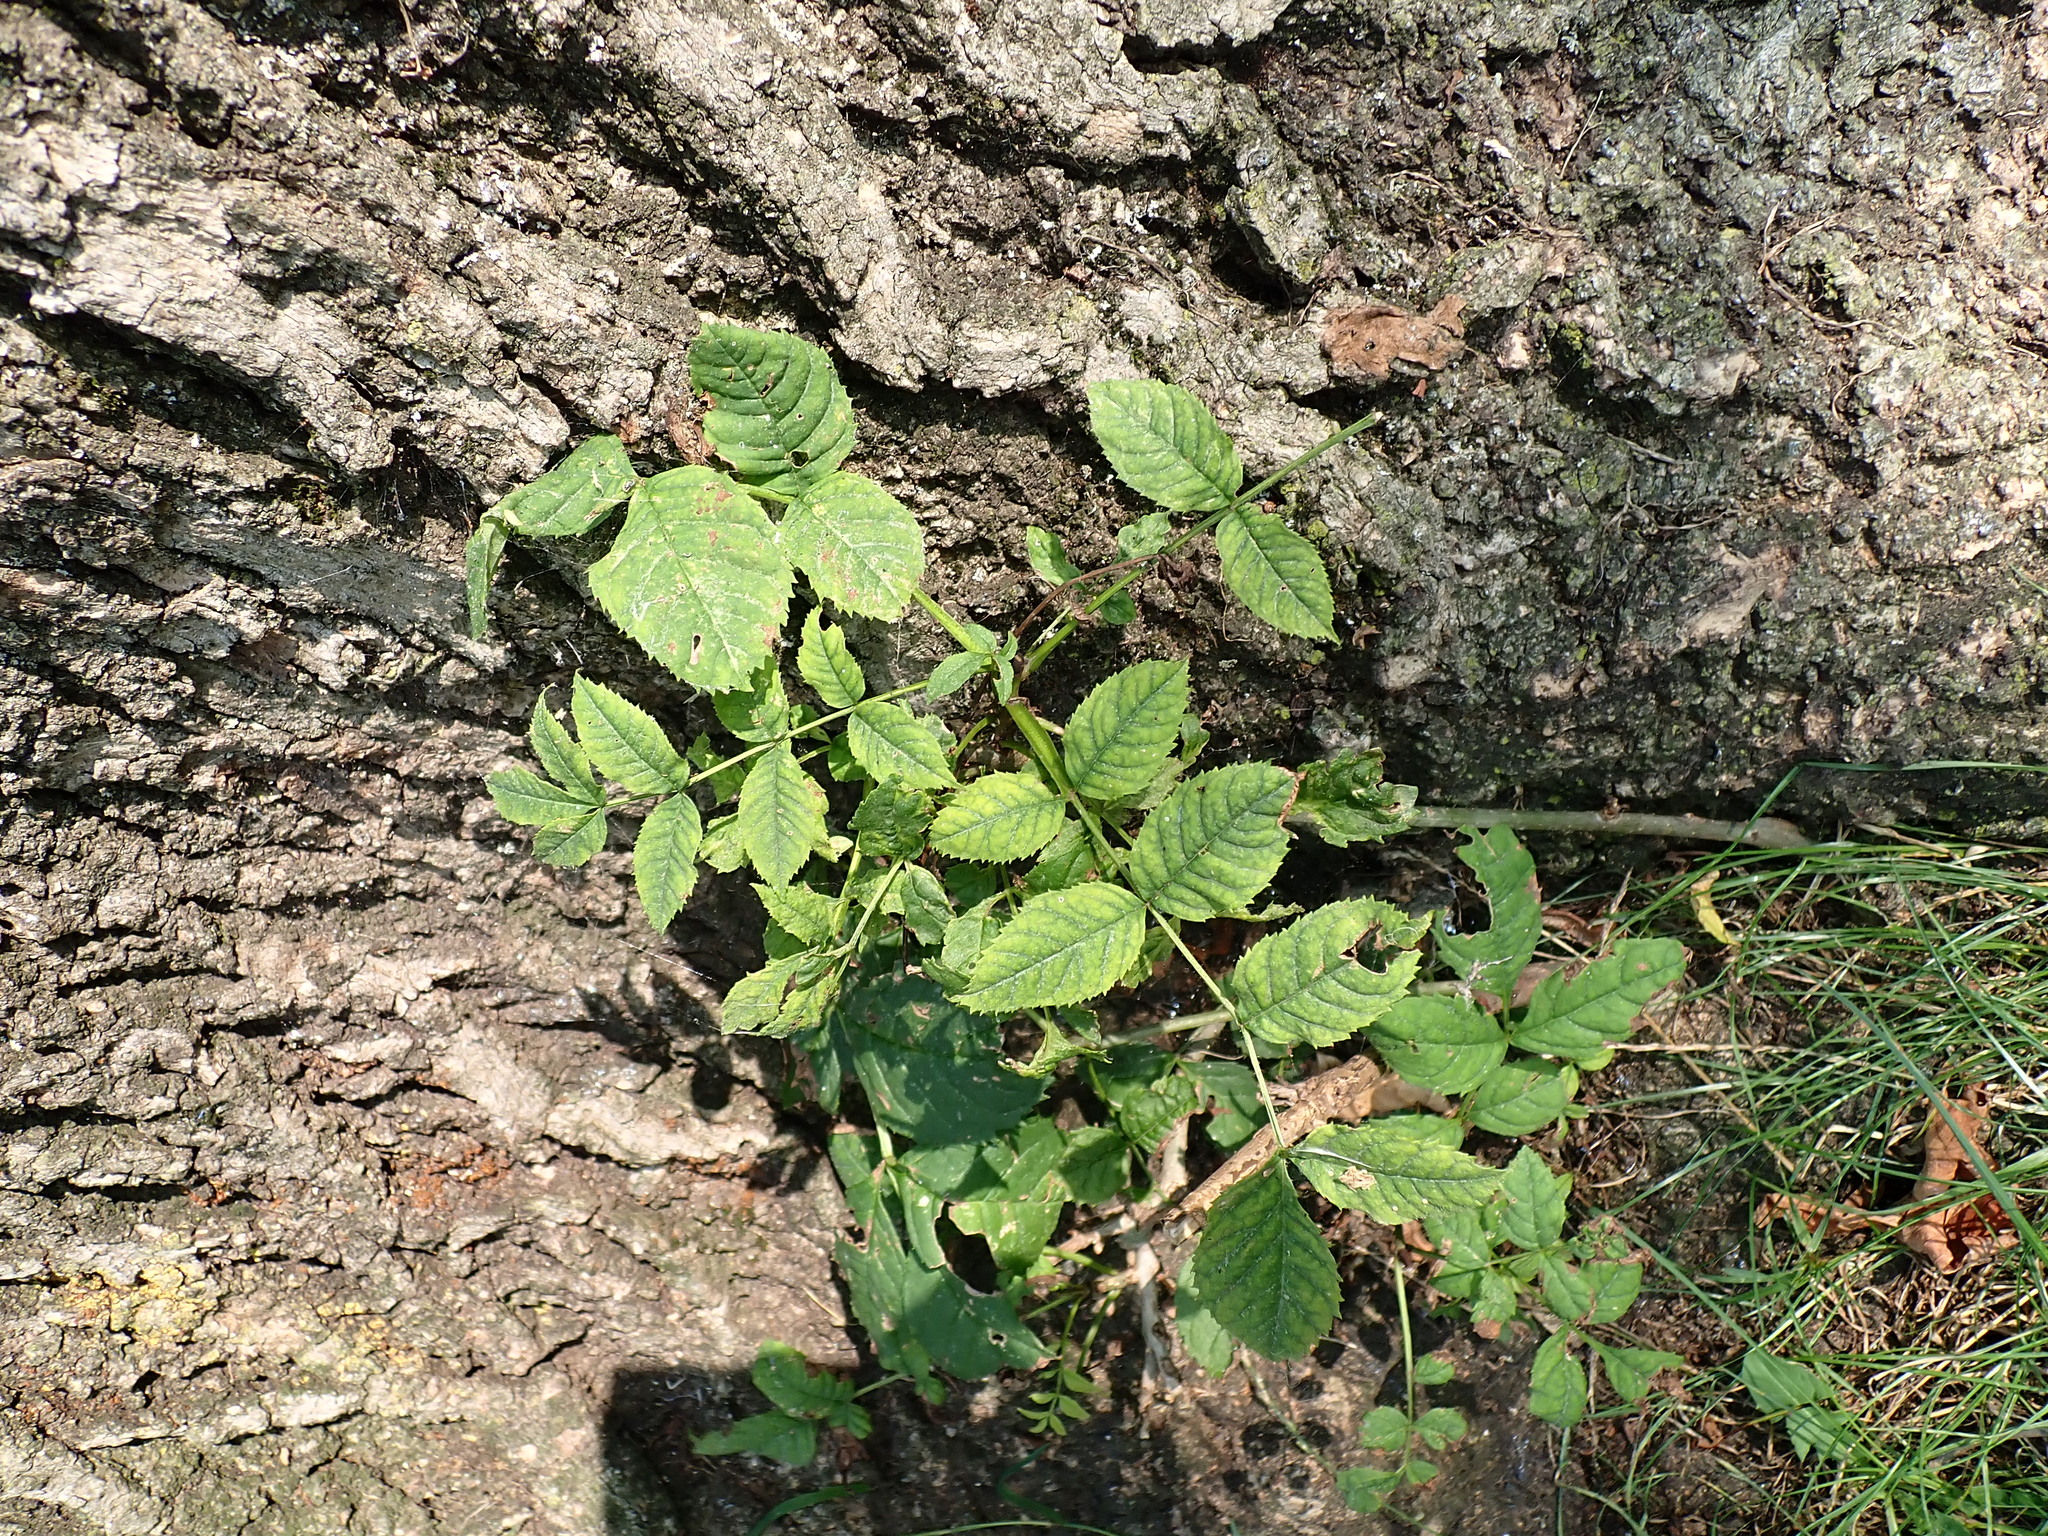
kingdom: Plantae
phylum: Tracheophyta
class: Magnoliopsida
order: Lamiales
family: Oleaceae
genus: Fraxinus
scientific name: Fraxinus excelsior
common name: European ash
